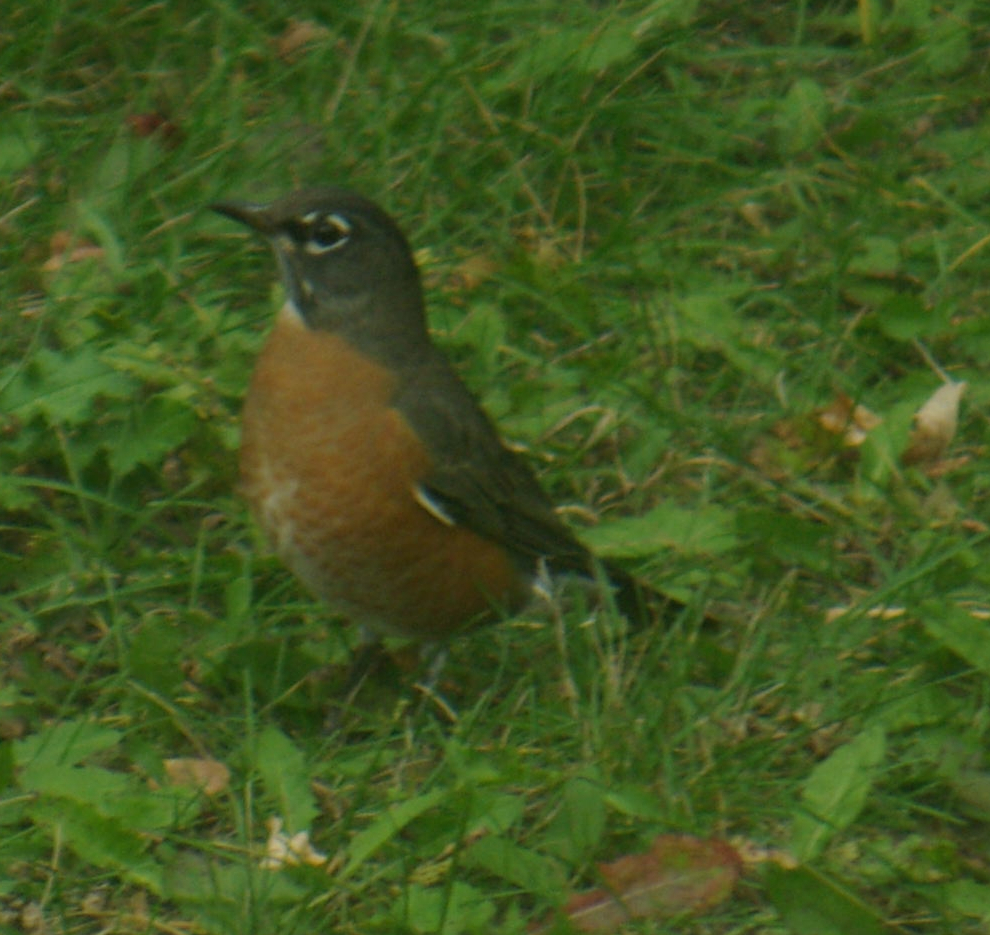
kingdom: Animalia
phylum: Chordata
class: Aves
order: Passeriformes
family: Turdidae
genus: Turdus
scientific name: Turdus migratorius
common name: American robin
